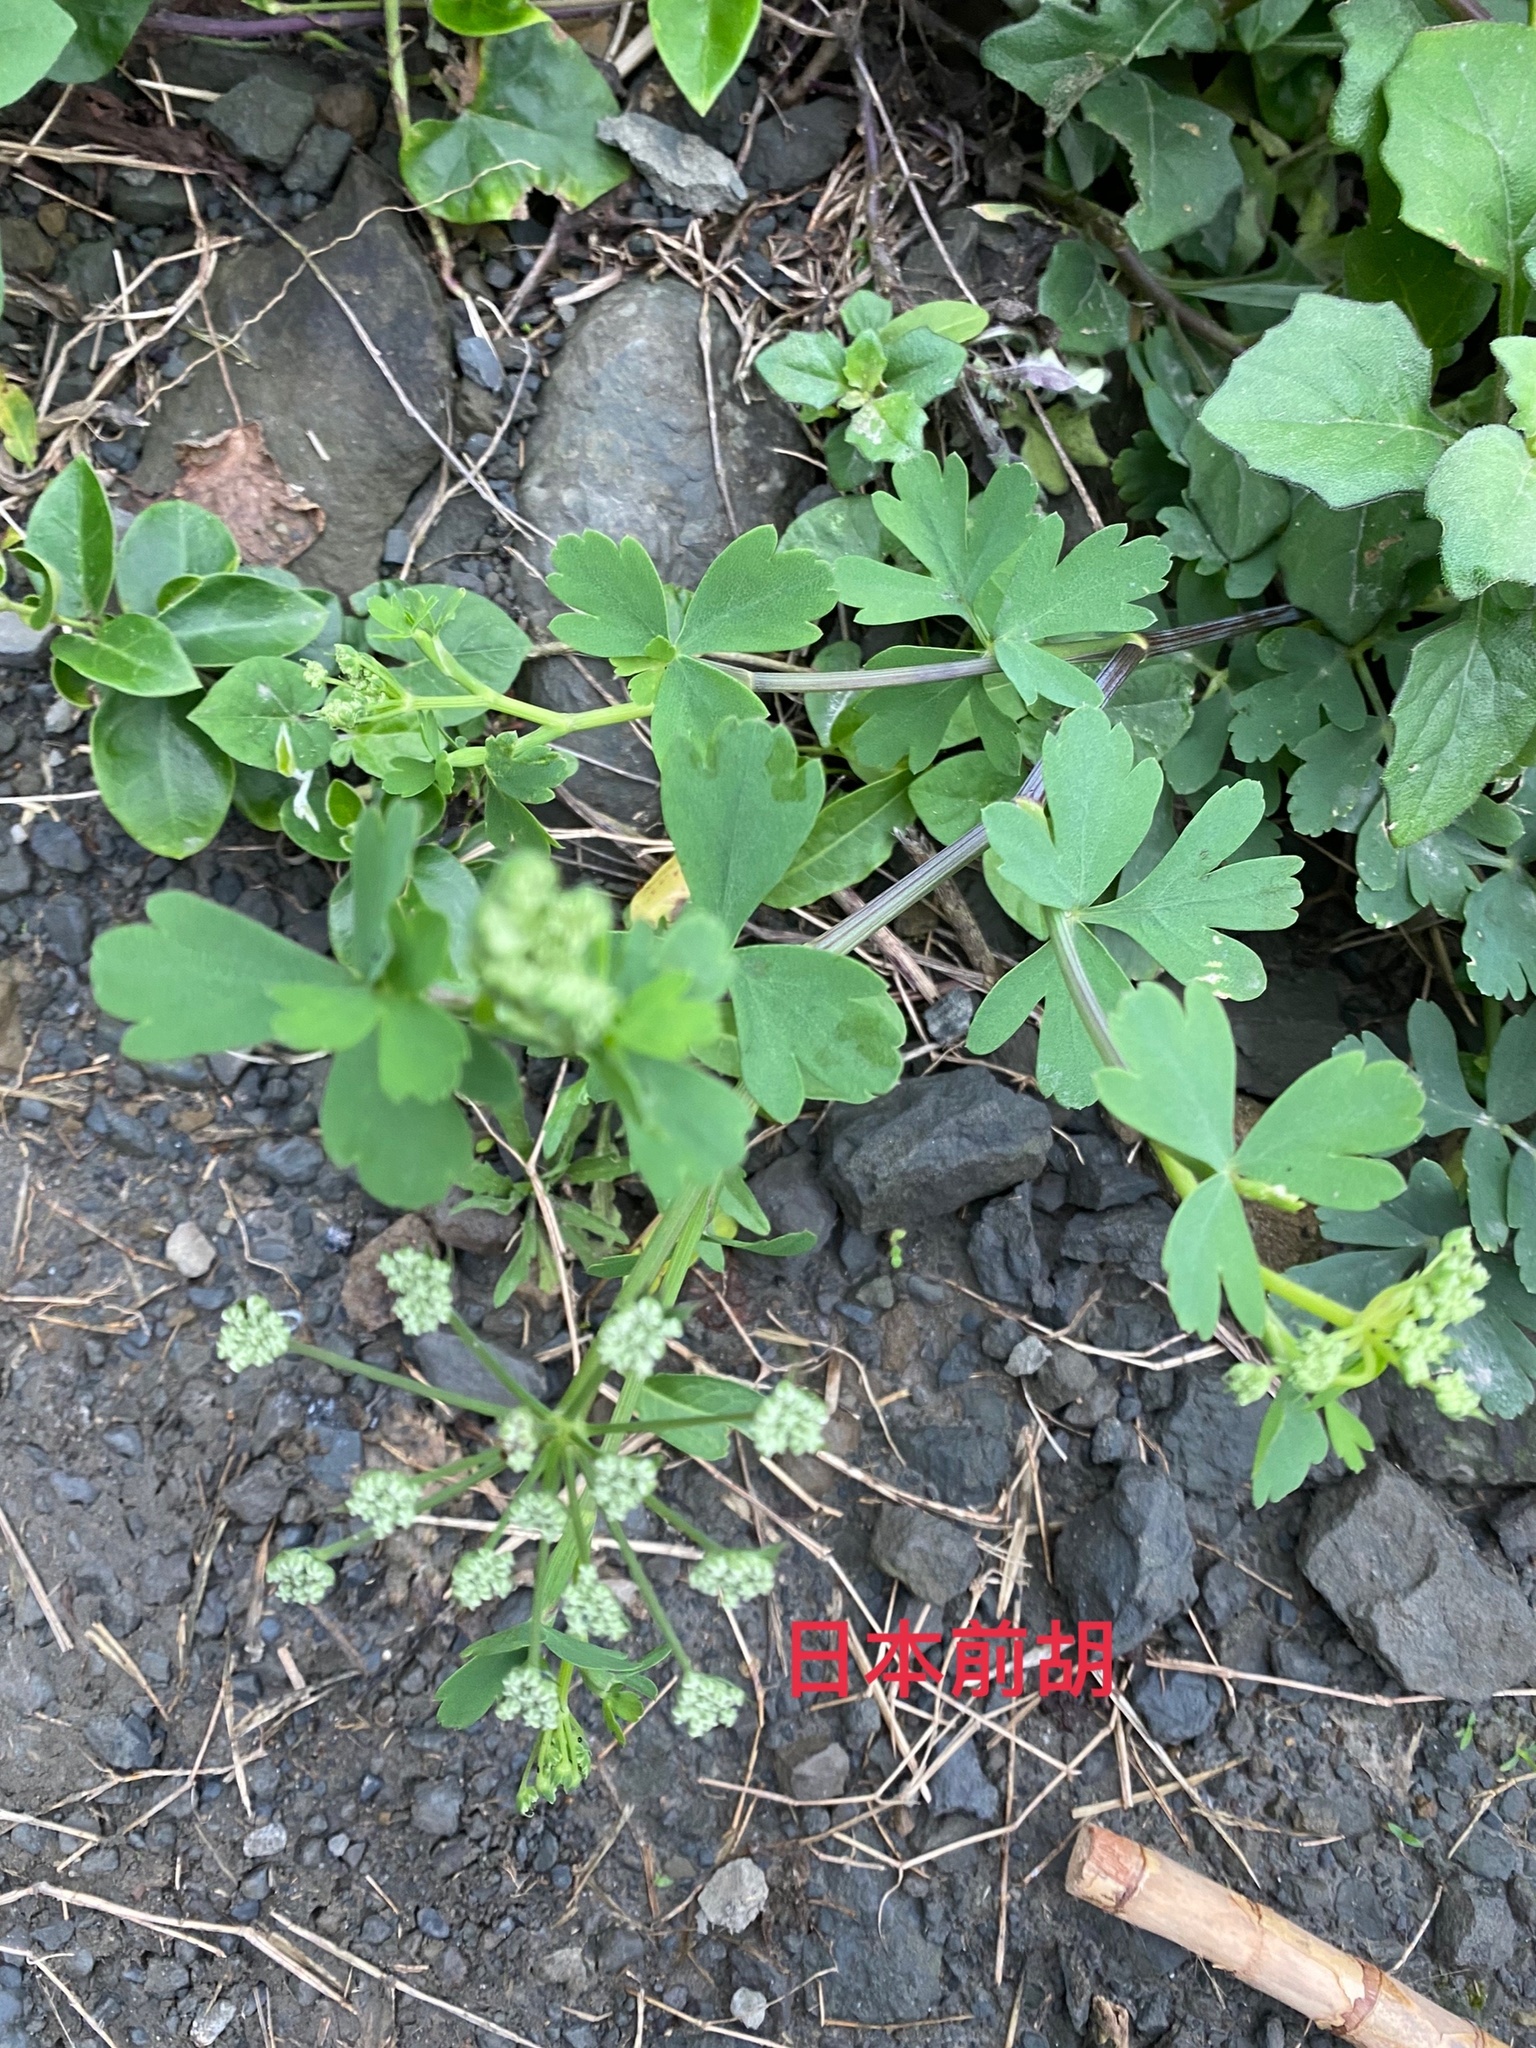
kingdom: Plantae
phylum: Tracheophyta
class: Magnoliopsida
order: Apiales
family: Apiaceae
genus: Peucedanum
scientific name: Peucedanum japonicum
